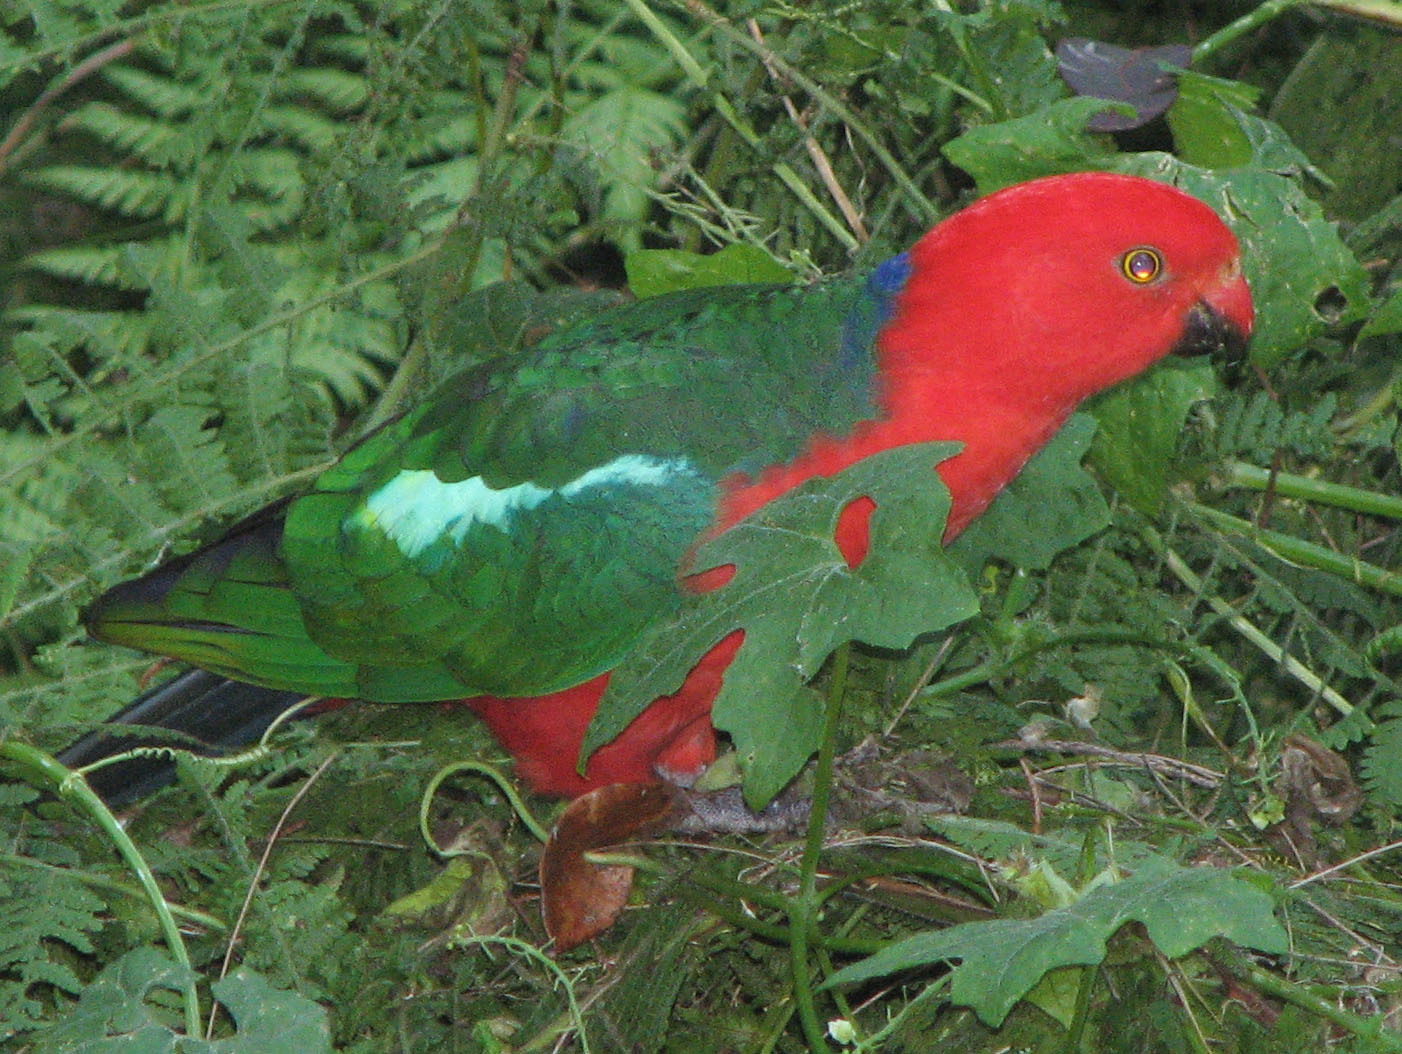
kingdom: Animalia
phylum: Chordata
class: Aves
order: Psittaciformes
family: Psittacidae
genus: Alisterus
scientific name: Alisterus scapularis
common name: Australian king parrot
